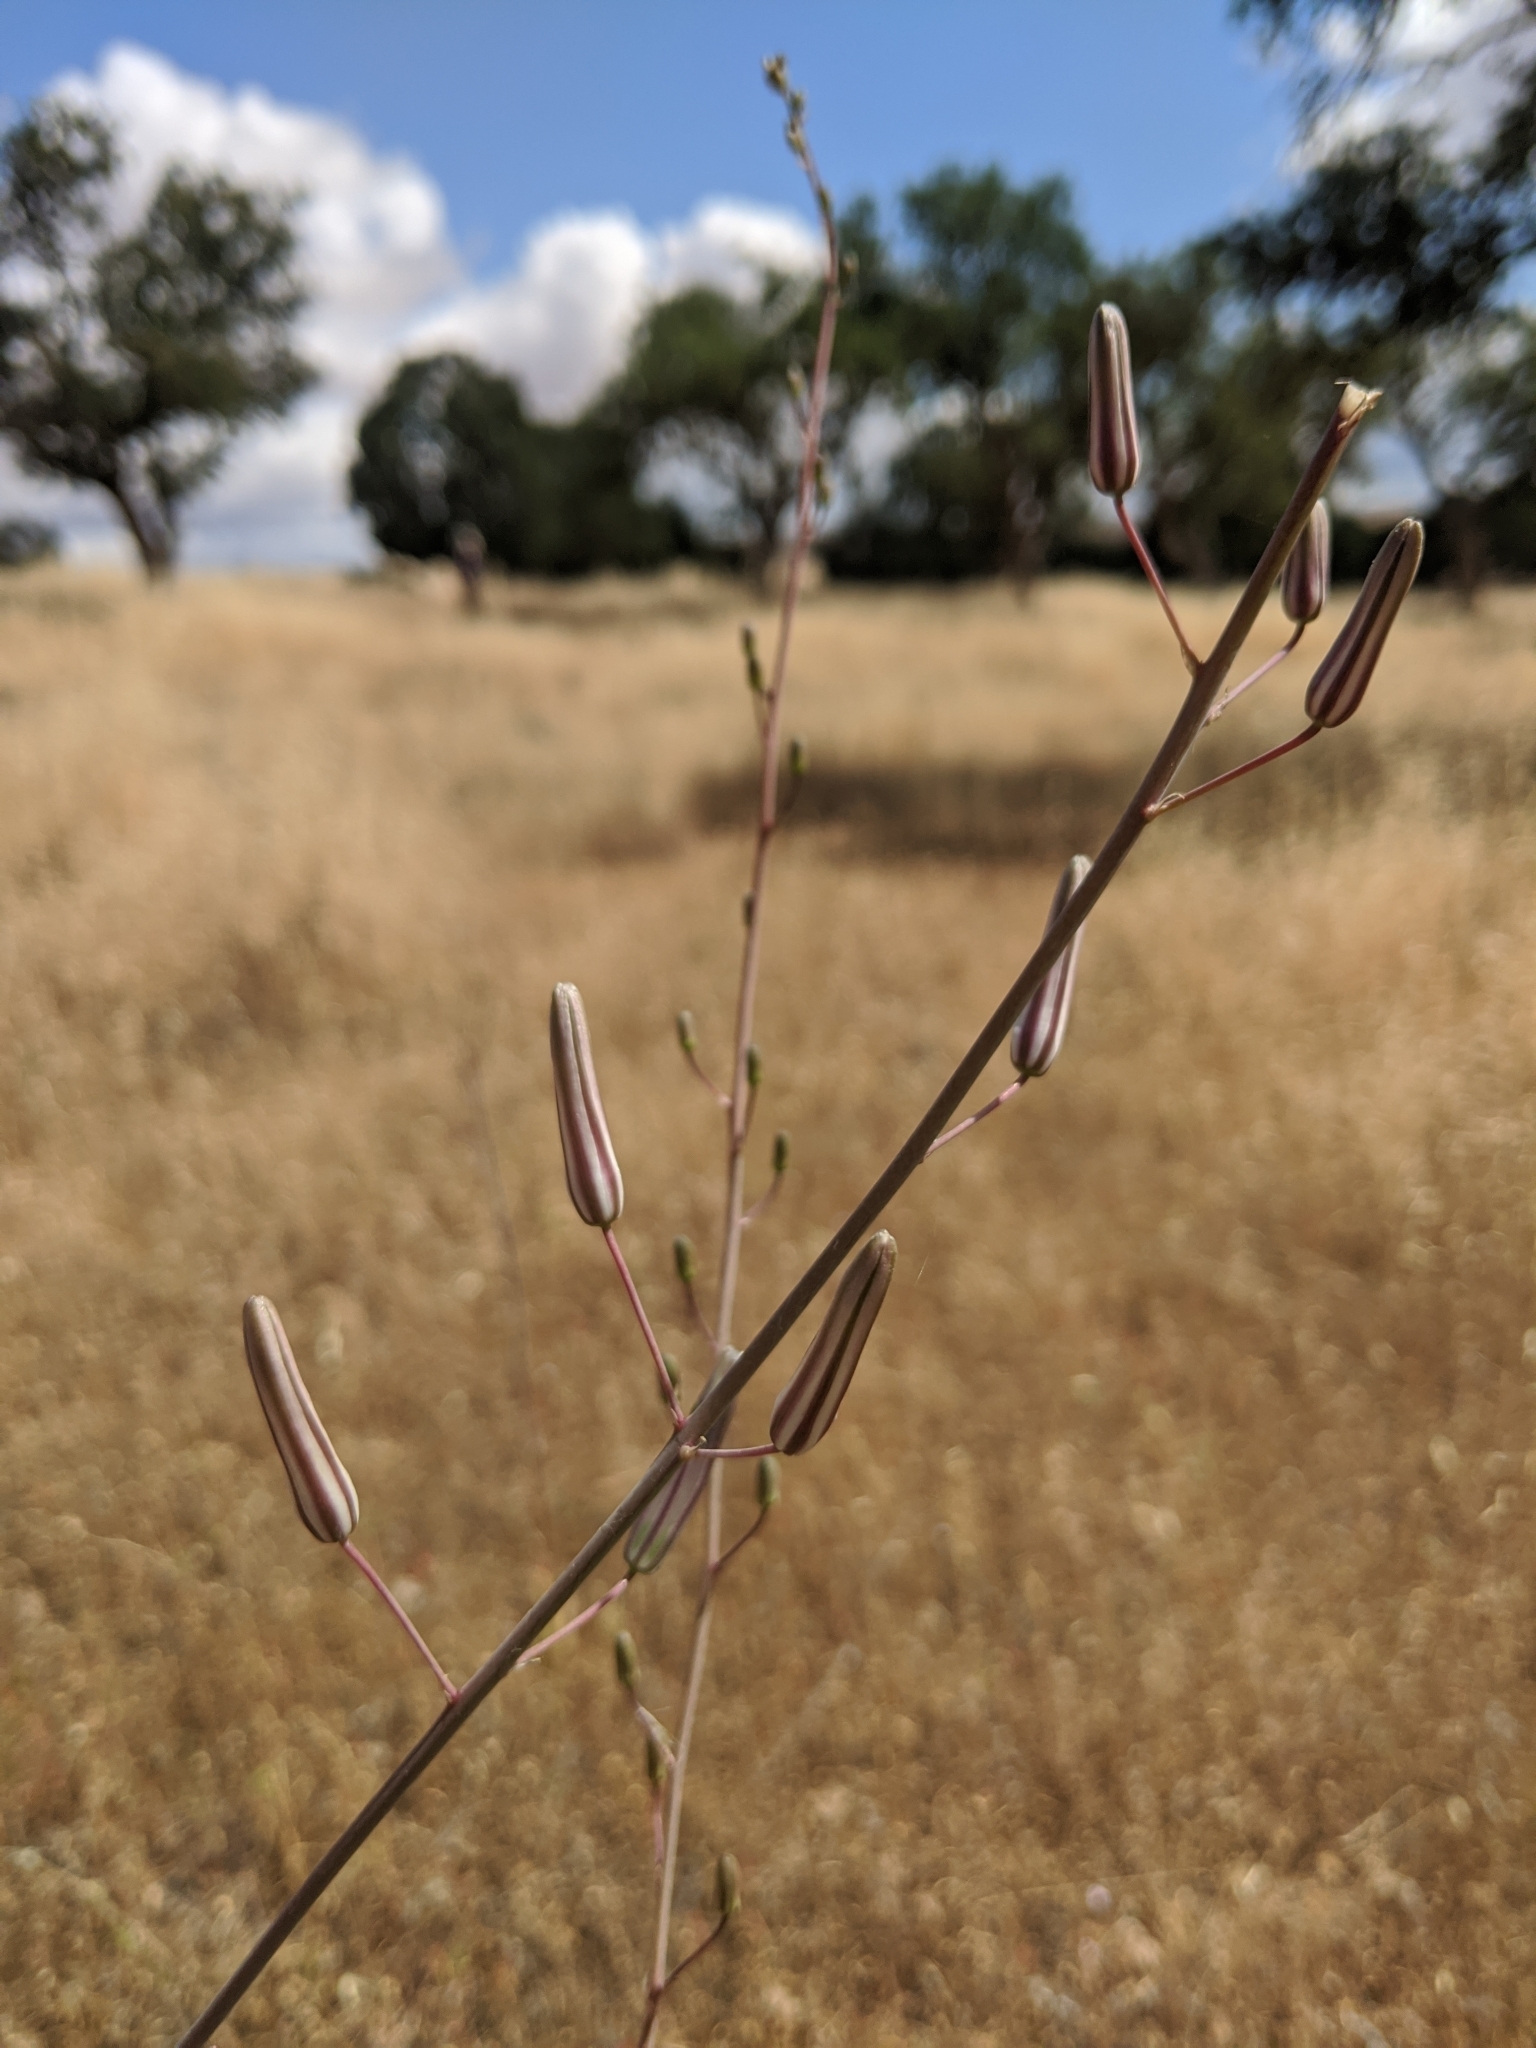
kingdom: Plantae
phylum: Tracheophyta
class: Liliopsida
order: Asparagales
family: Asparagaceae
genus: Chlorogalum
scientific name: Chlorogalum pomeridianum
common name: Amole
